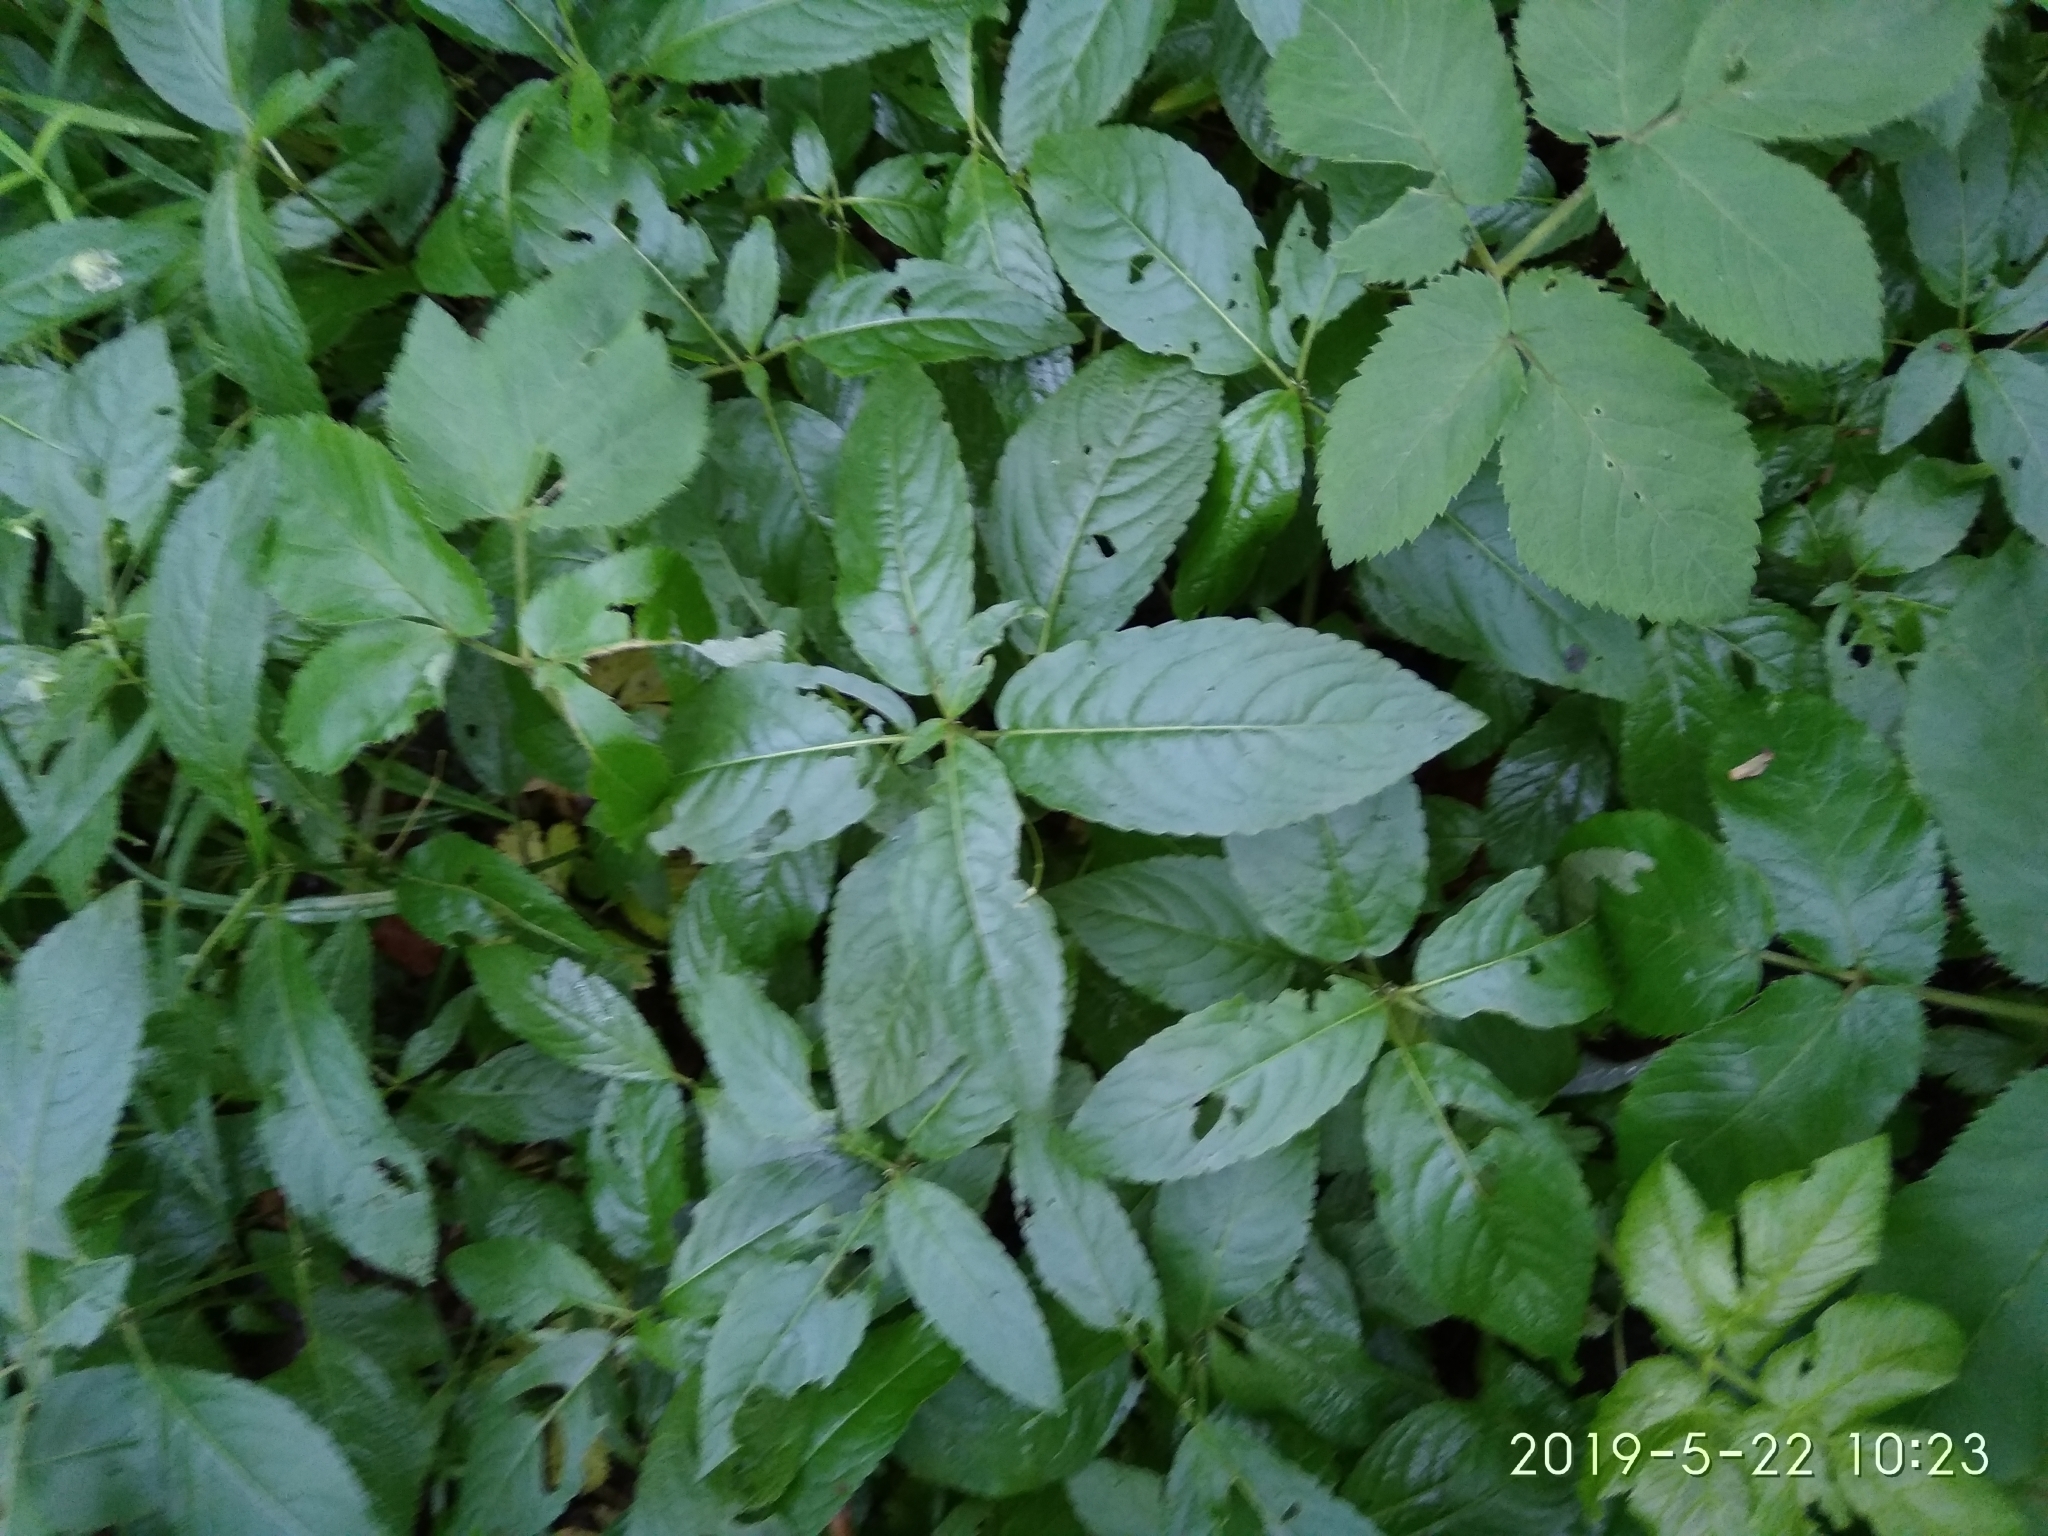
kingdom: Plantae
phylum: Tracheophyta
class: Magnoliopsida
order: Malpighiales
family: Euphorbiaceae
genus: Mercurialis
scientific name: Mercurialis perennis
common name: Dog mercury
